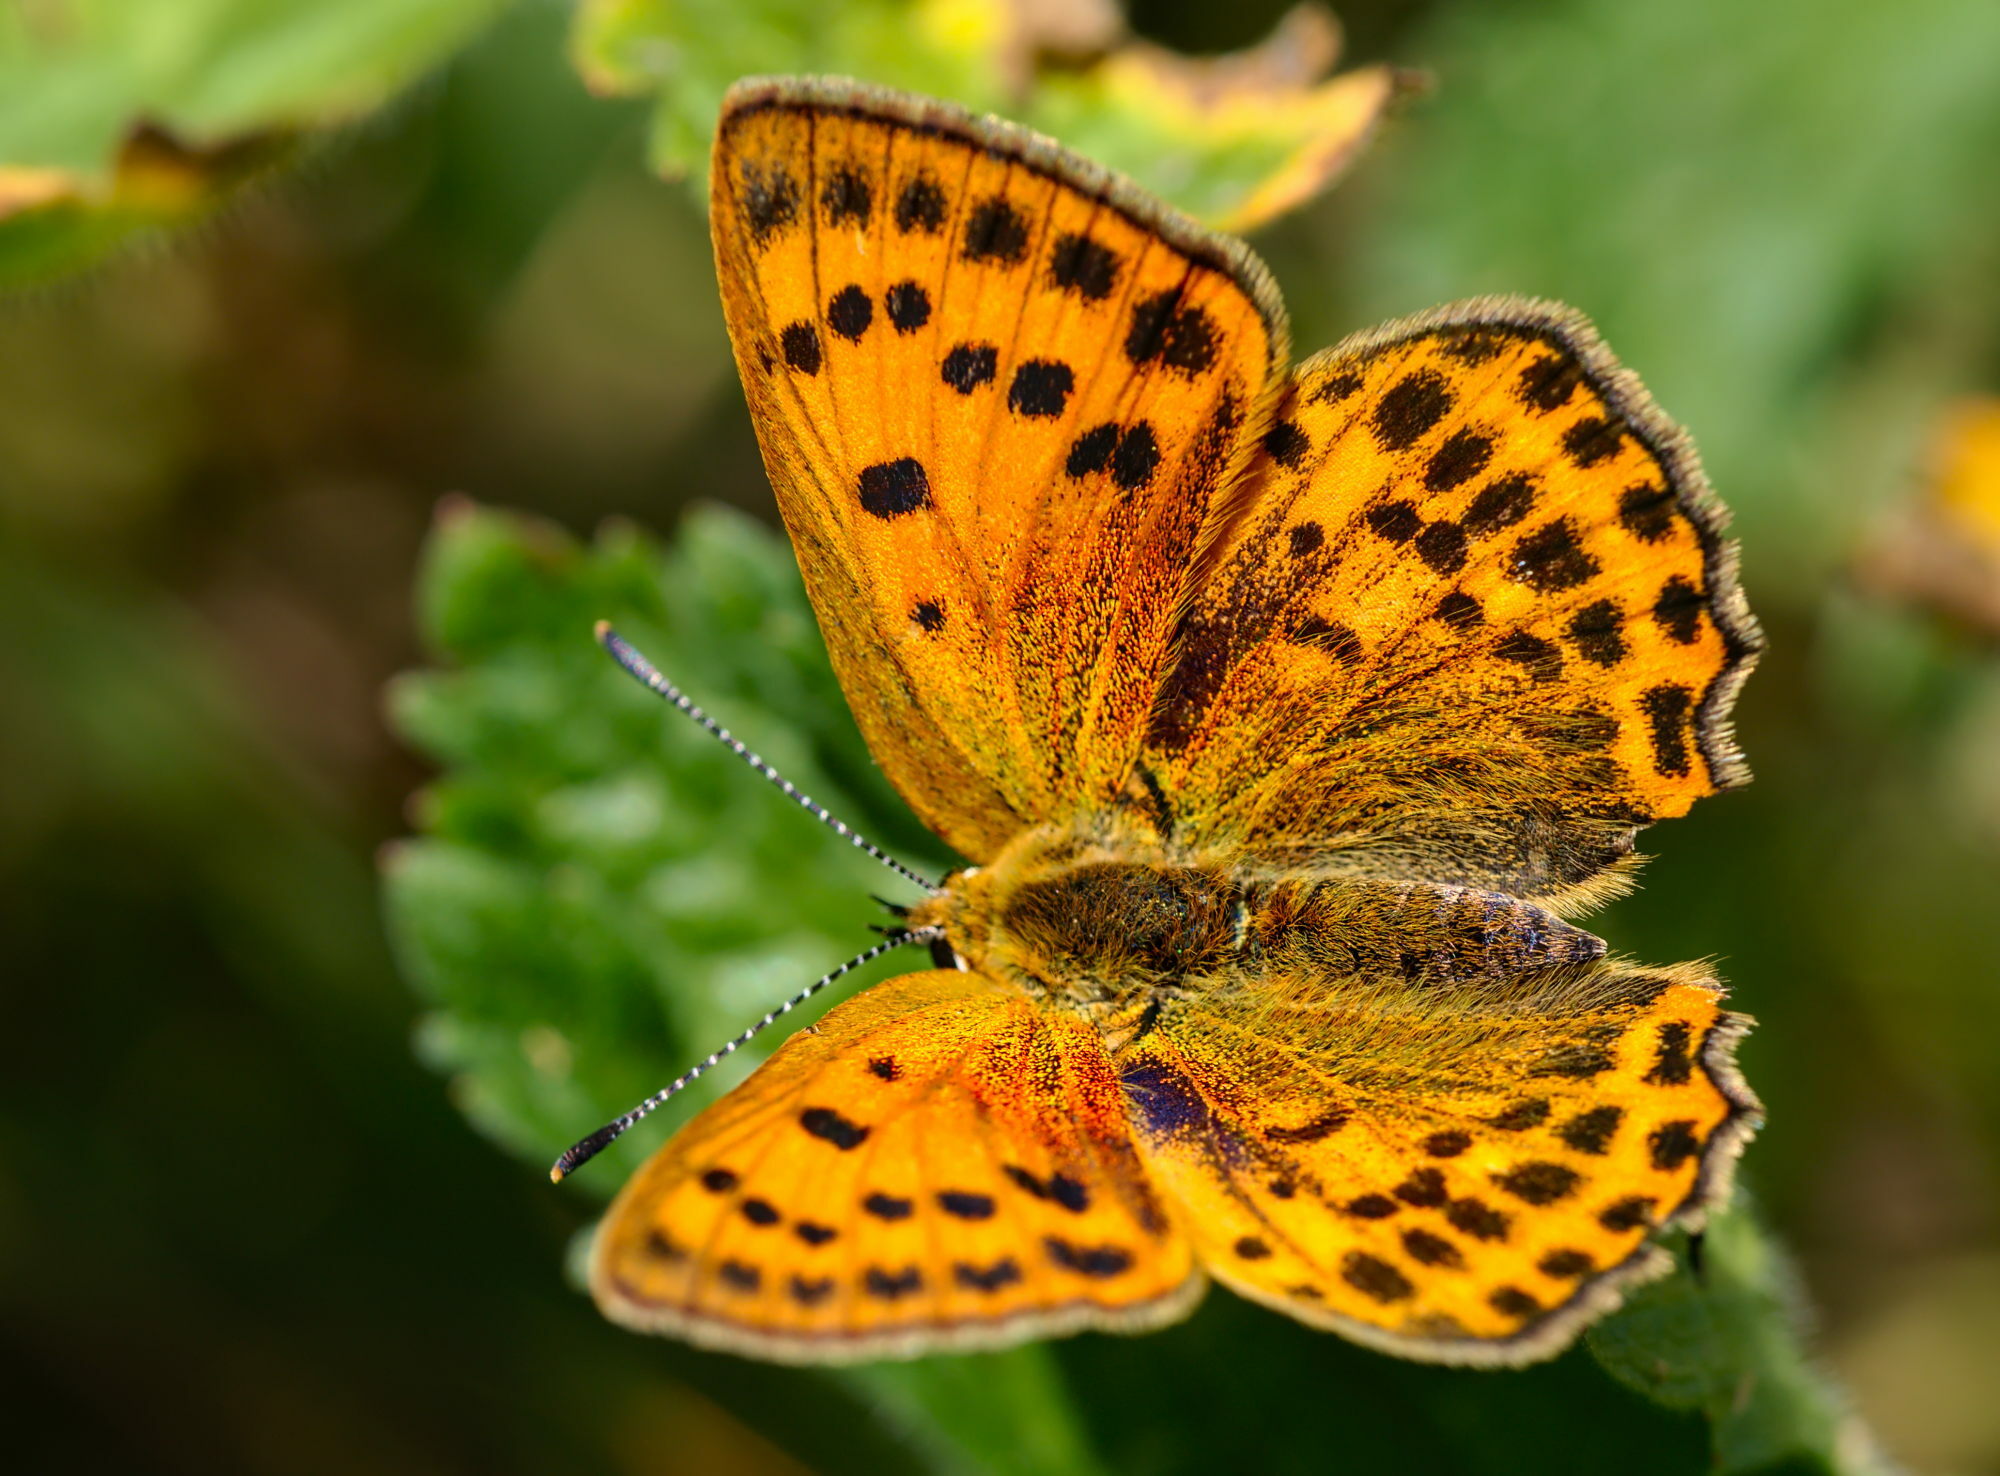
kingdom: Animalia
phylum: Arthropoda
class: Insecta
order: Lepidoptera
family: Lycaenidae
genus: Lycaena
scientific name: Lycaena virgaureae
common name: Scarce copper
